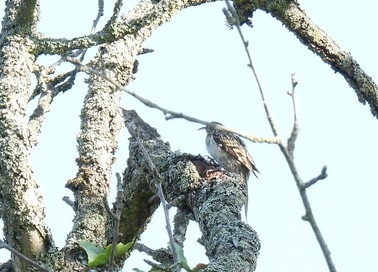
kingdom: Animalia
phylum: Chordata
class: Aves
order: Passeriformes
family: Certhiidae
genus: Certhia
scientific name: Certhia brachydactyla
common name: Short-toed treecreeper
